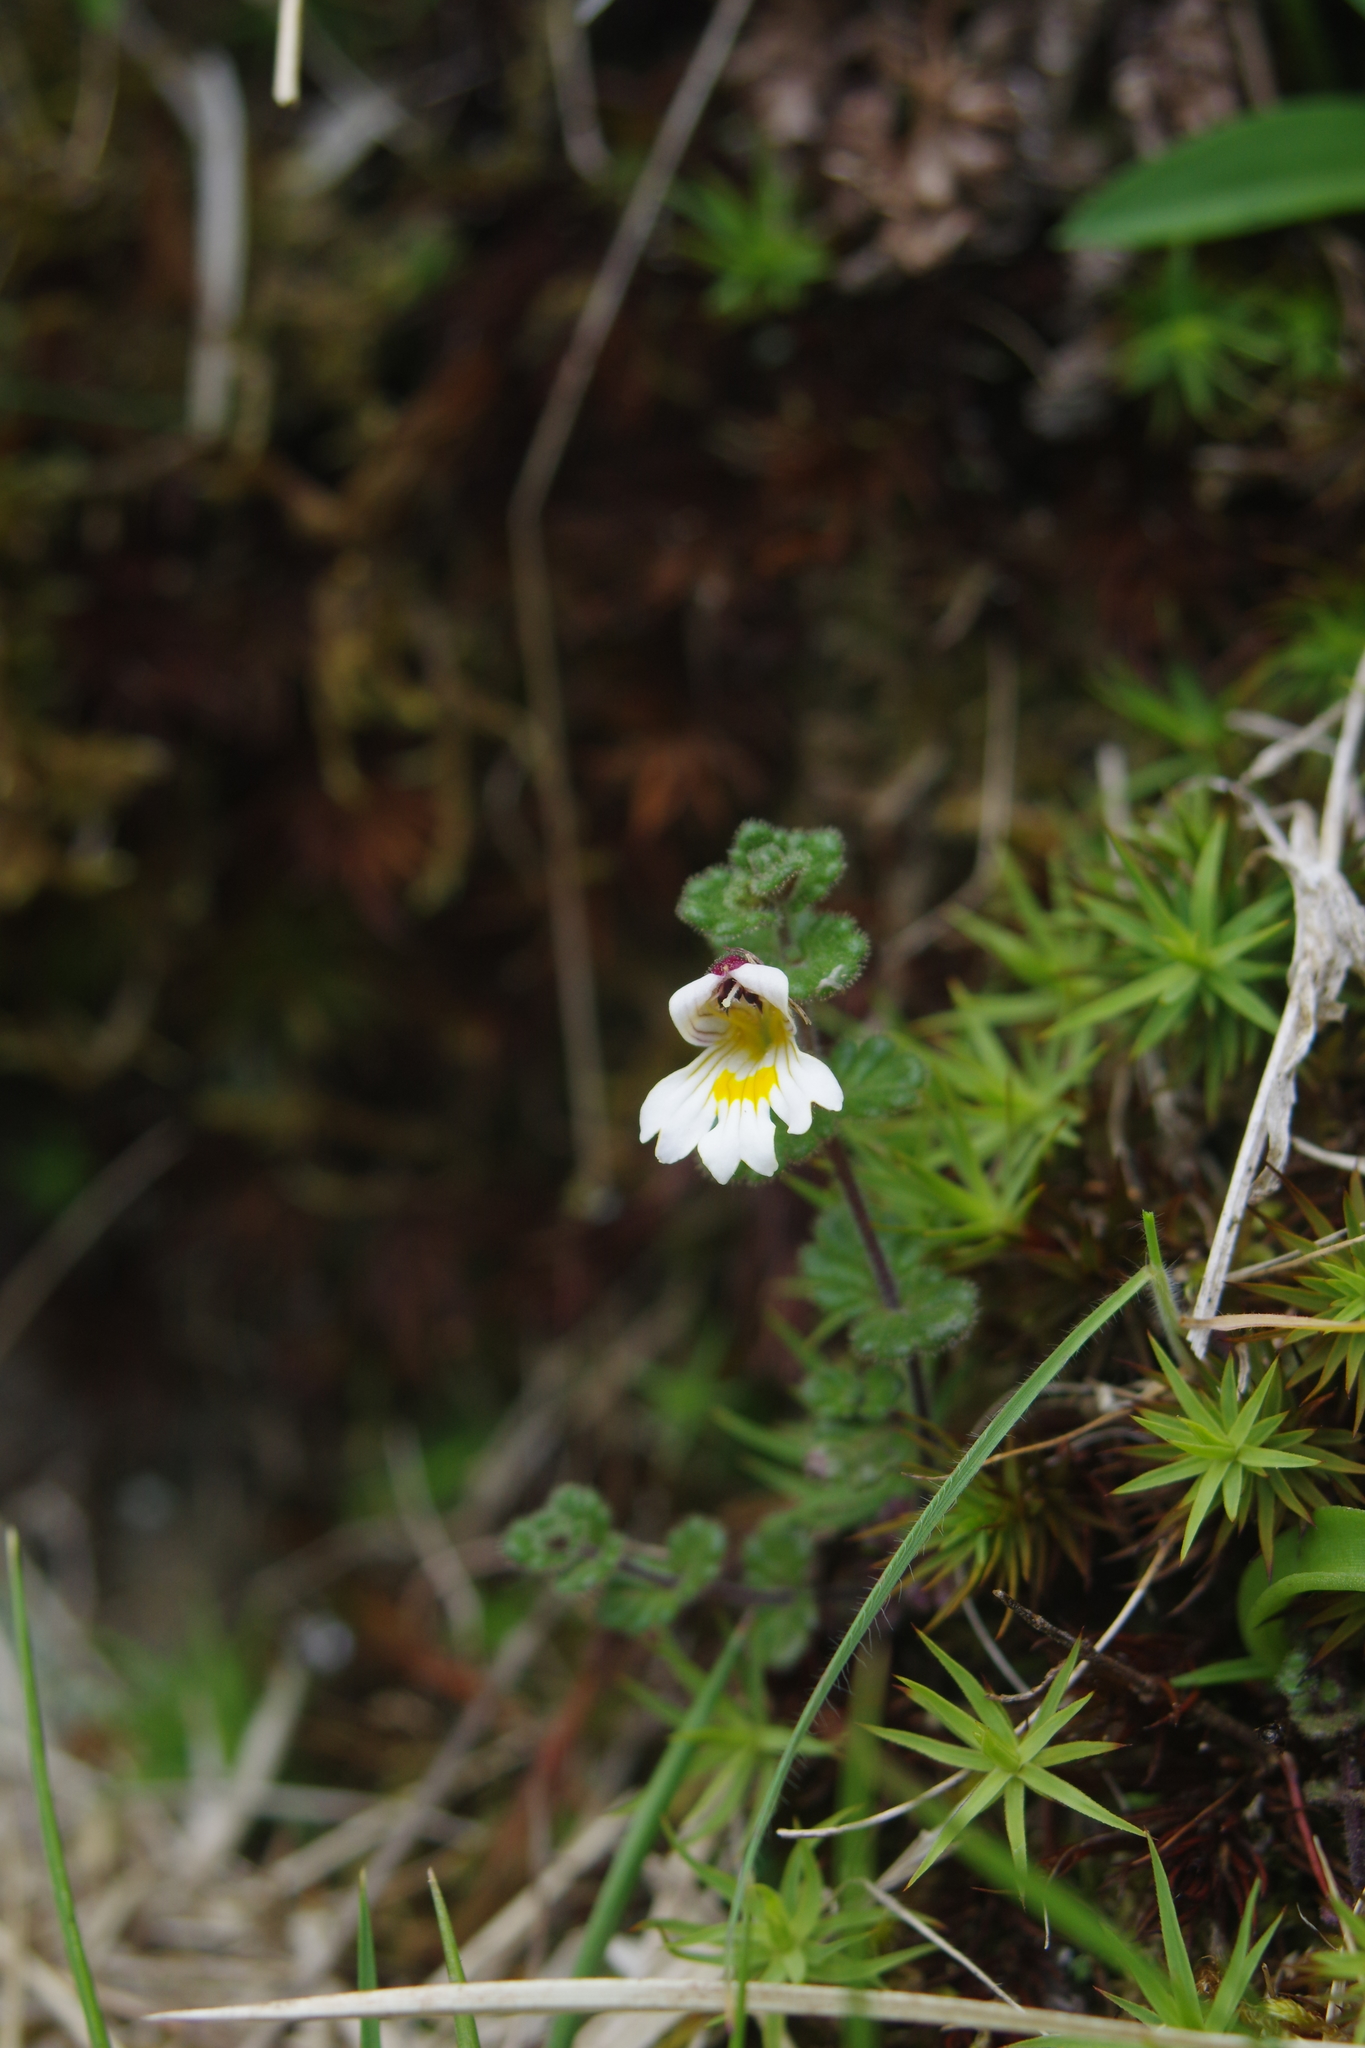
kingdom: Plantae
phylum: Tracheophyta
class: Magnoliopsida
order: Lamiales
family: Orobanchaceae
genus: Euphrasia
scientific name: Euphrasia transmorrisonensis
